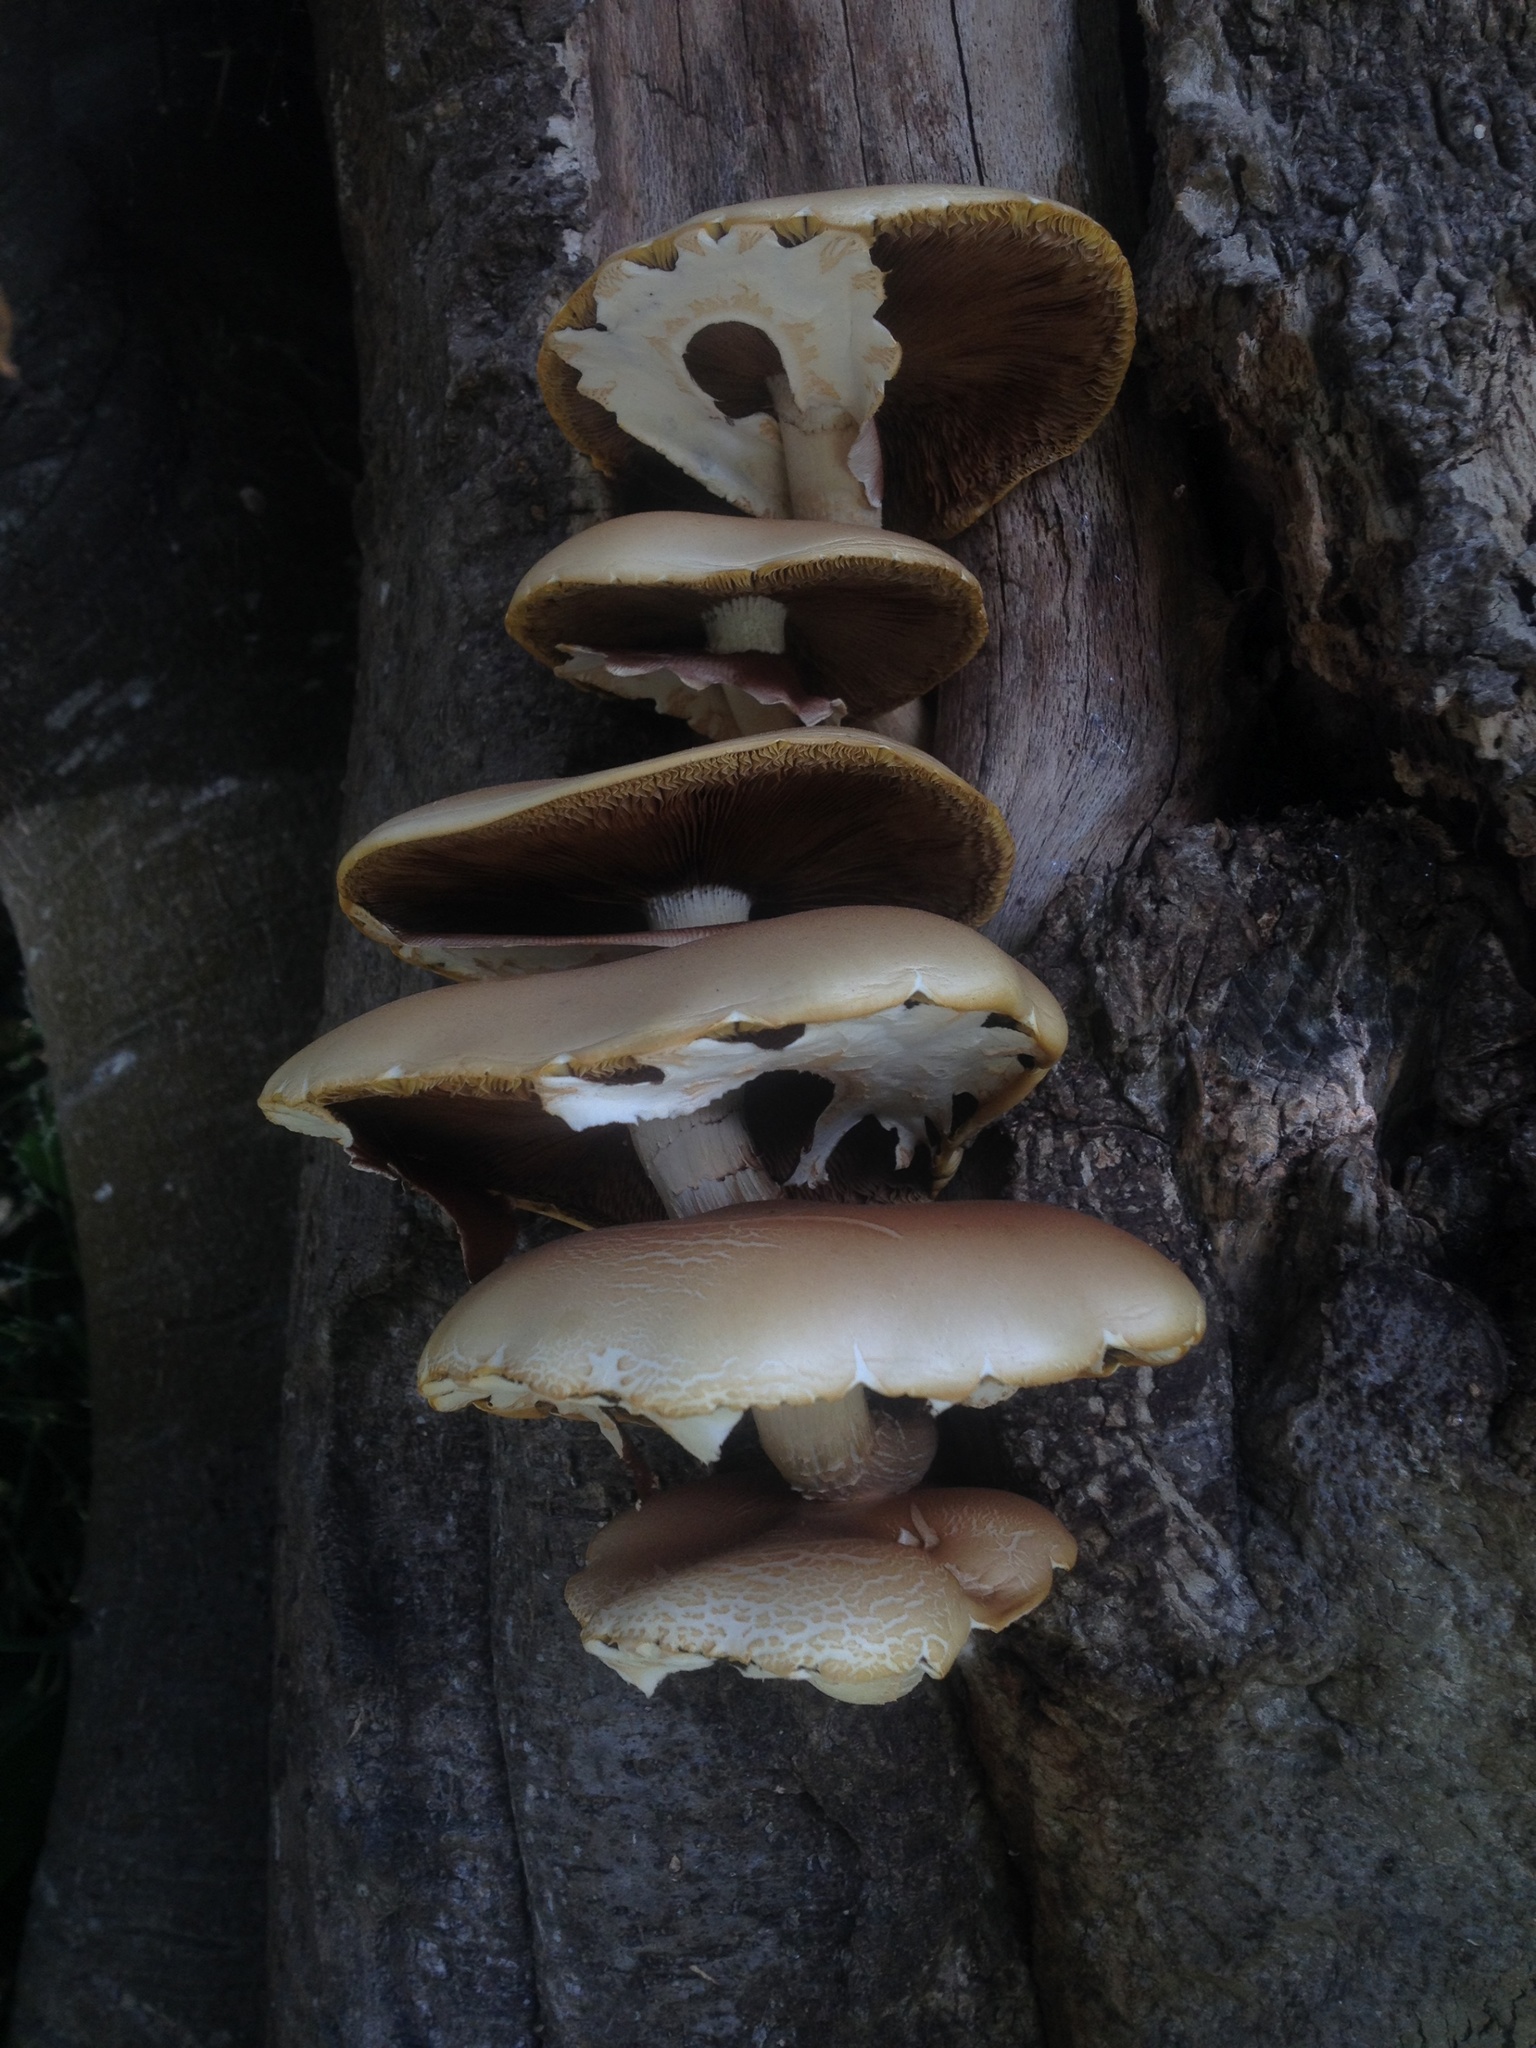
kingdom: Fungi
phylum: Basidiomycota
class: Agaricomycetes
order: Agaricales
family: Tubariaceae
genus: Cyclocybe
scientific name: Cyclocybe parasitica
